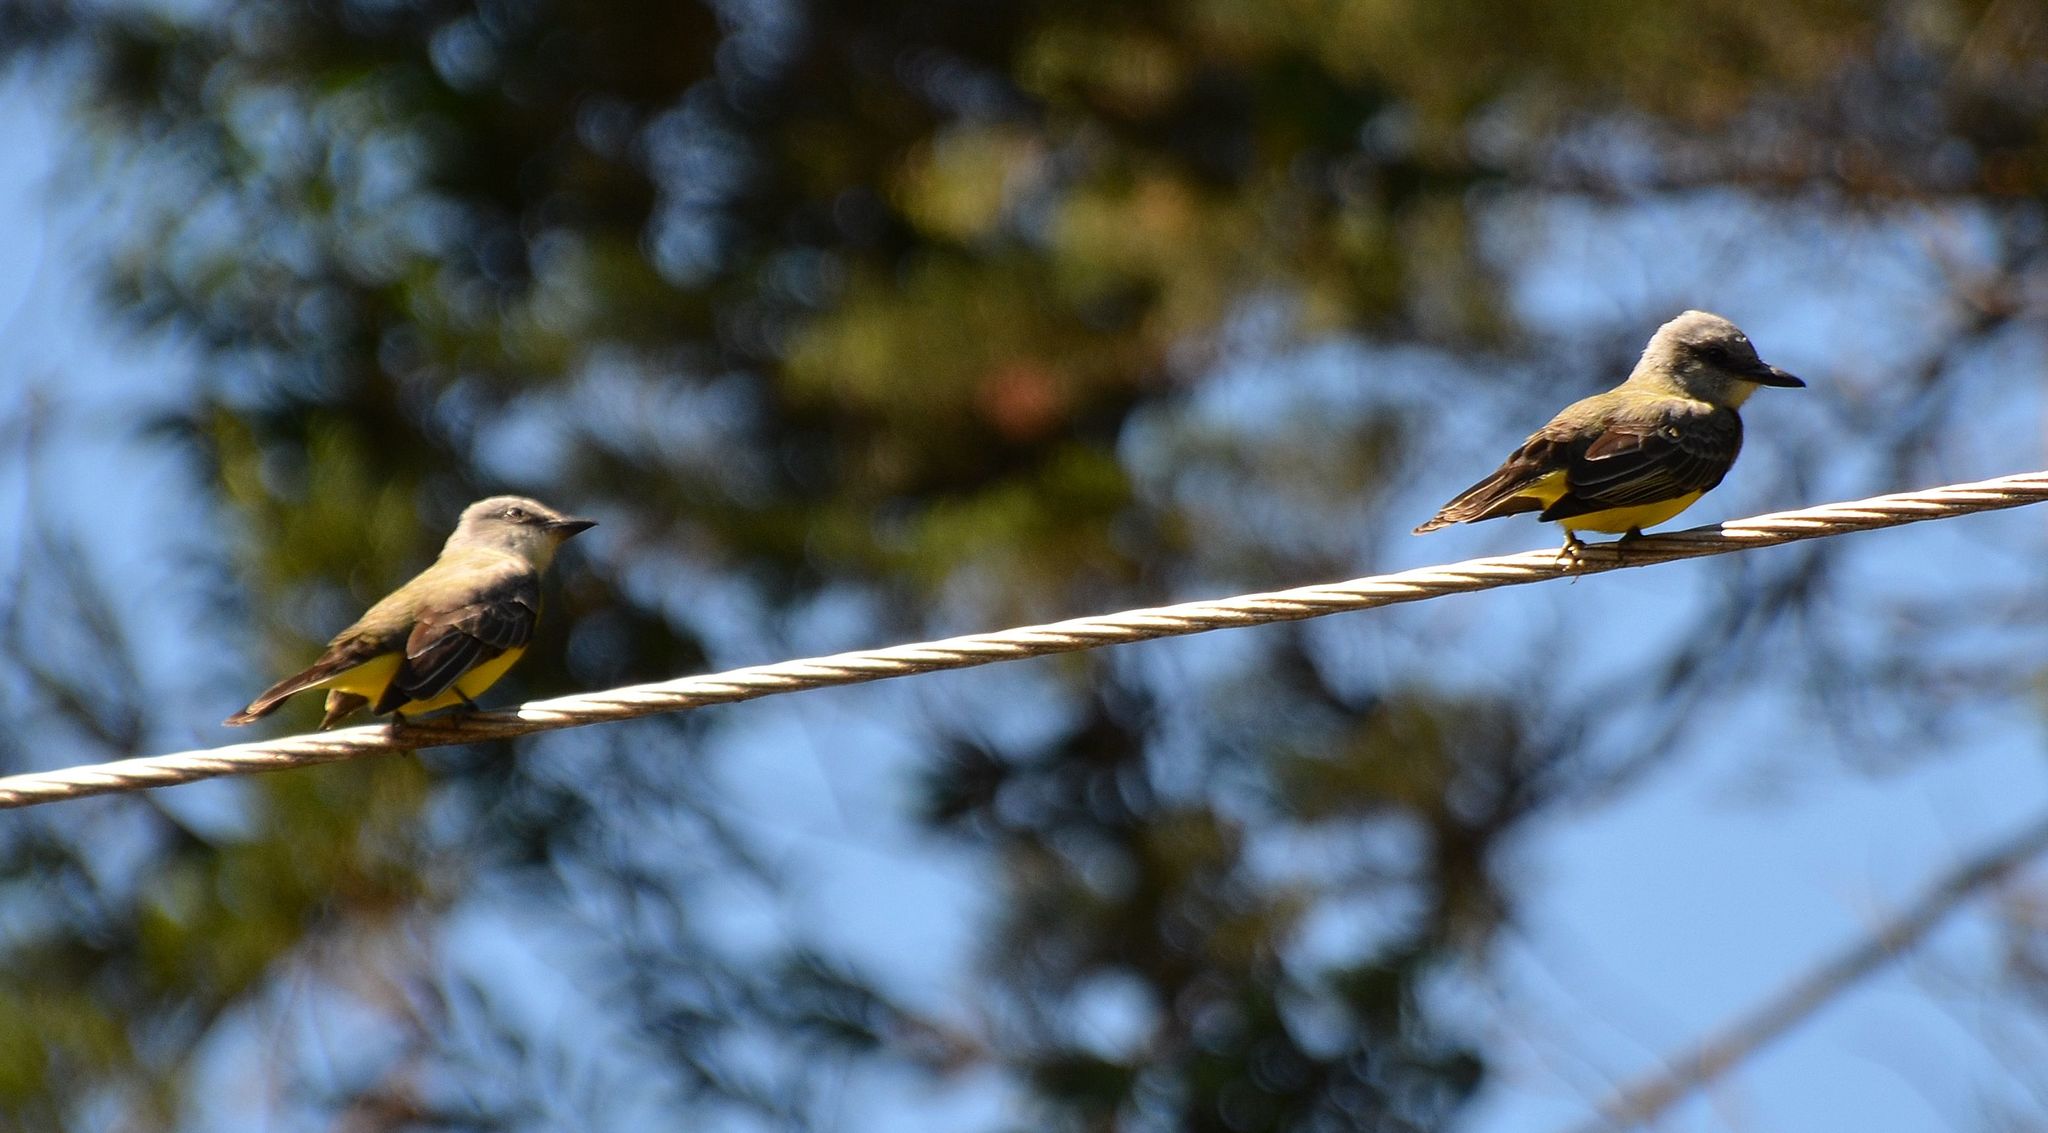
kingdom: Animalia
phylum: Chordata
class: Aves
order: Passeriformes
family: Tyrannidae
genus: Tyrannus
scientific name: Tyrannus melancholicus
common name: Tropical kingbird
